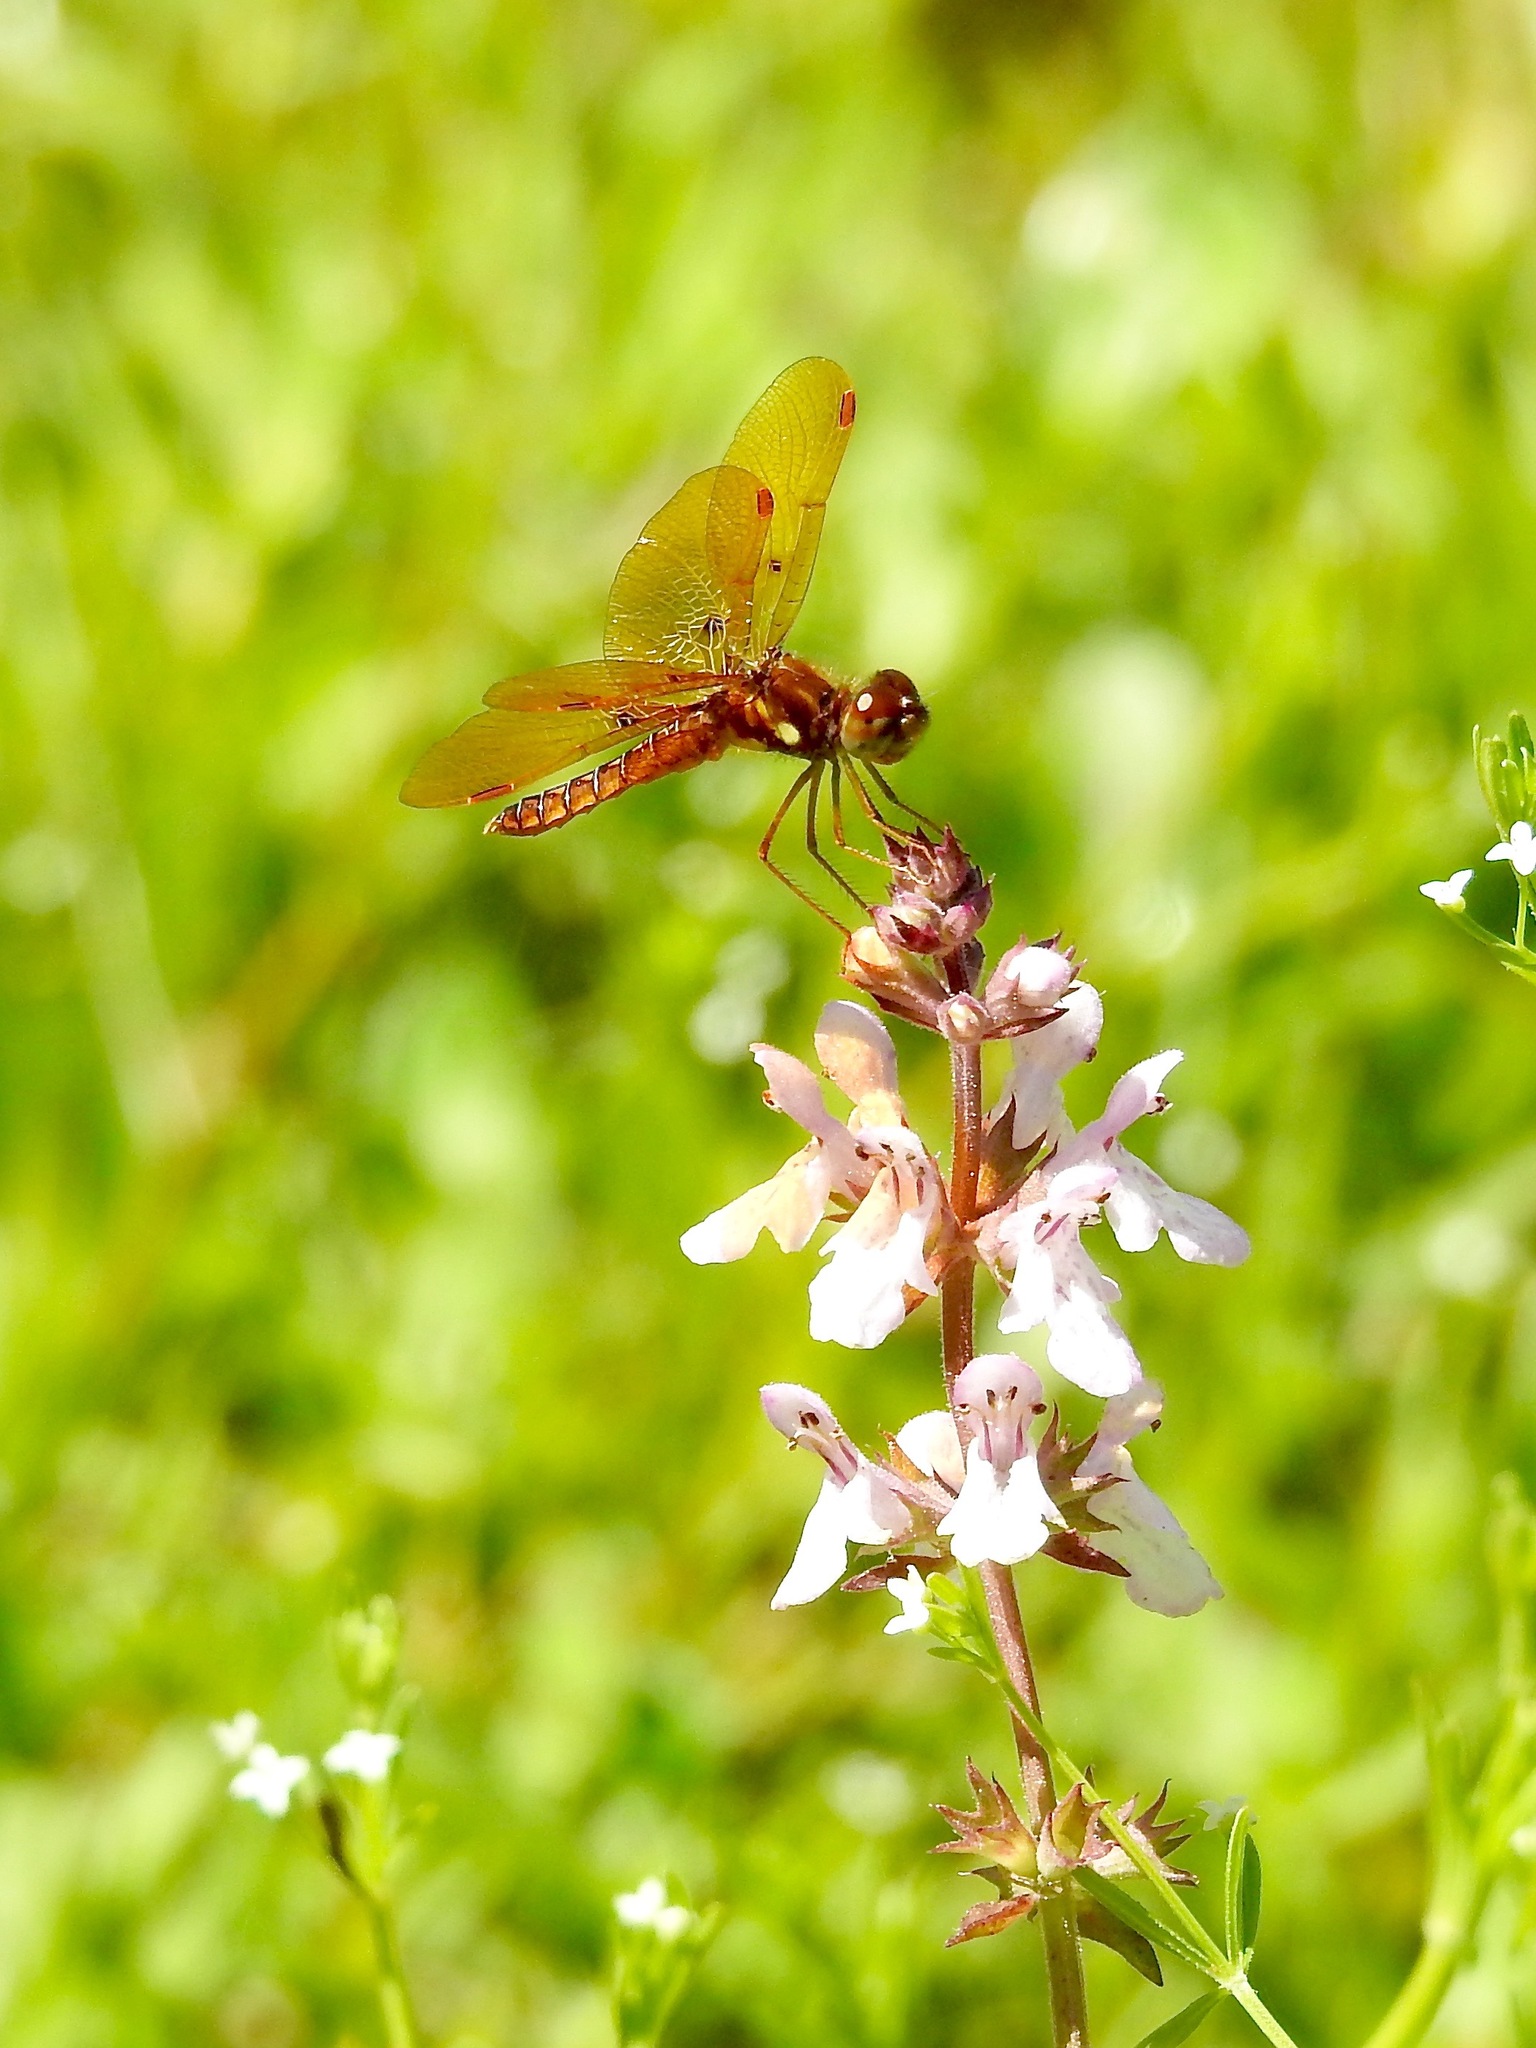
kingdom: Animalia
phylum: Arthropoda
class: Insecta
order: Odonata
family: Libellulidae
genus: Perithemis
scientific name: Perithemis tenera
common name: Eastern amberwing
